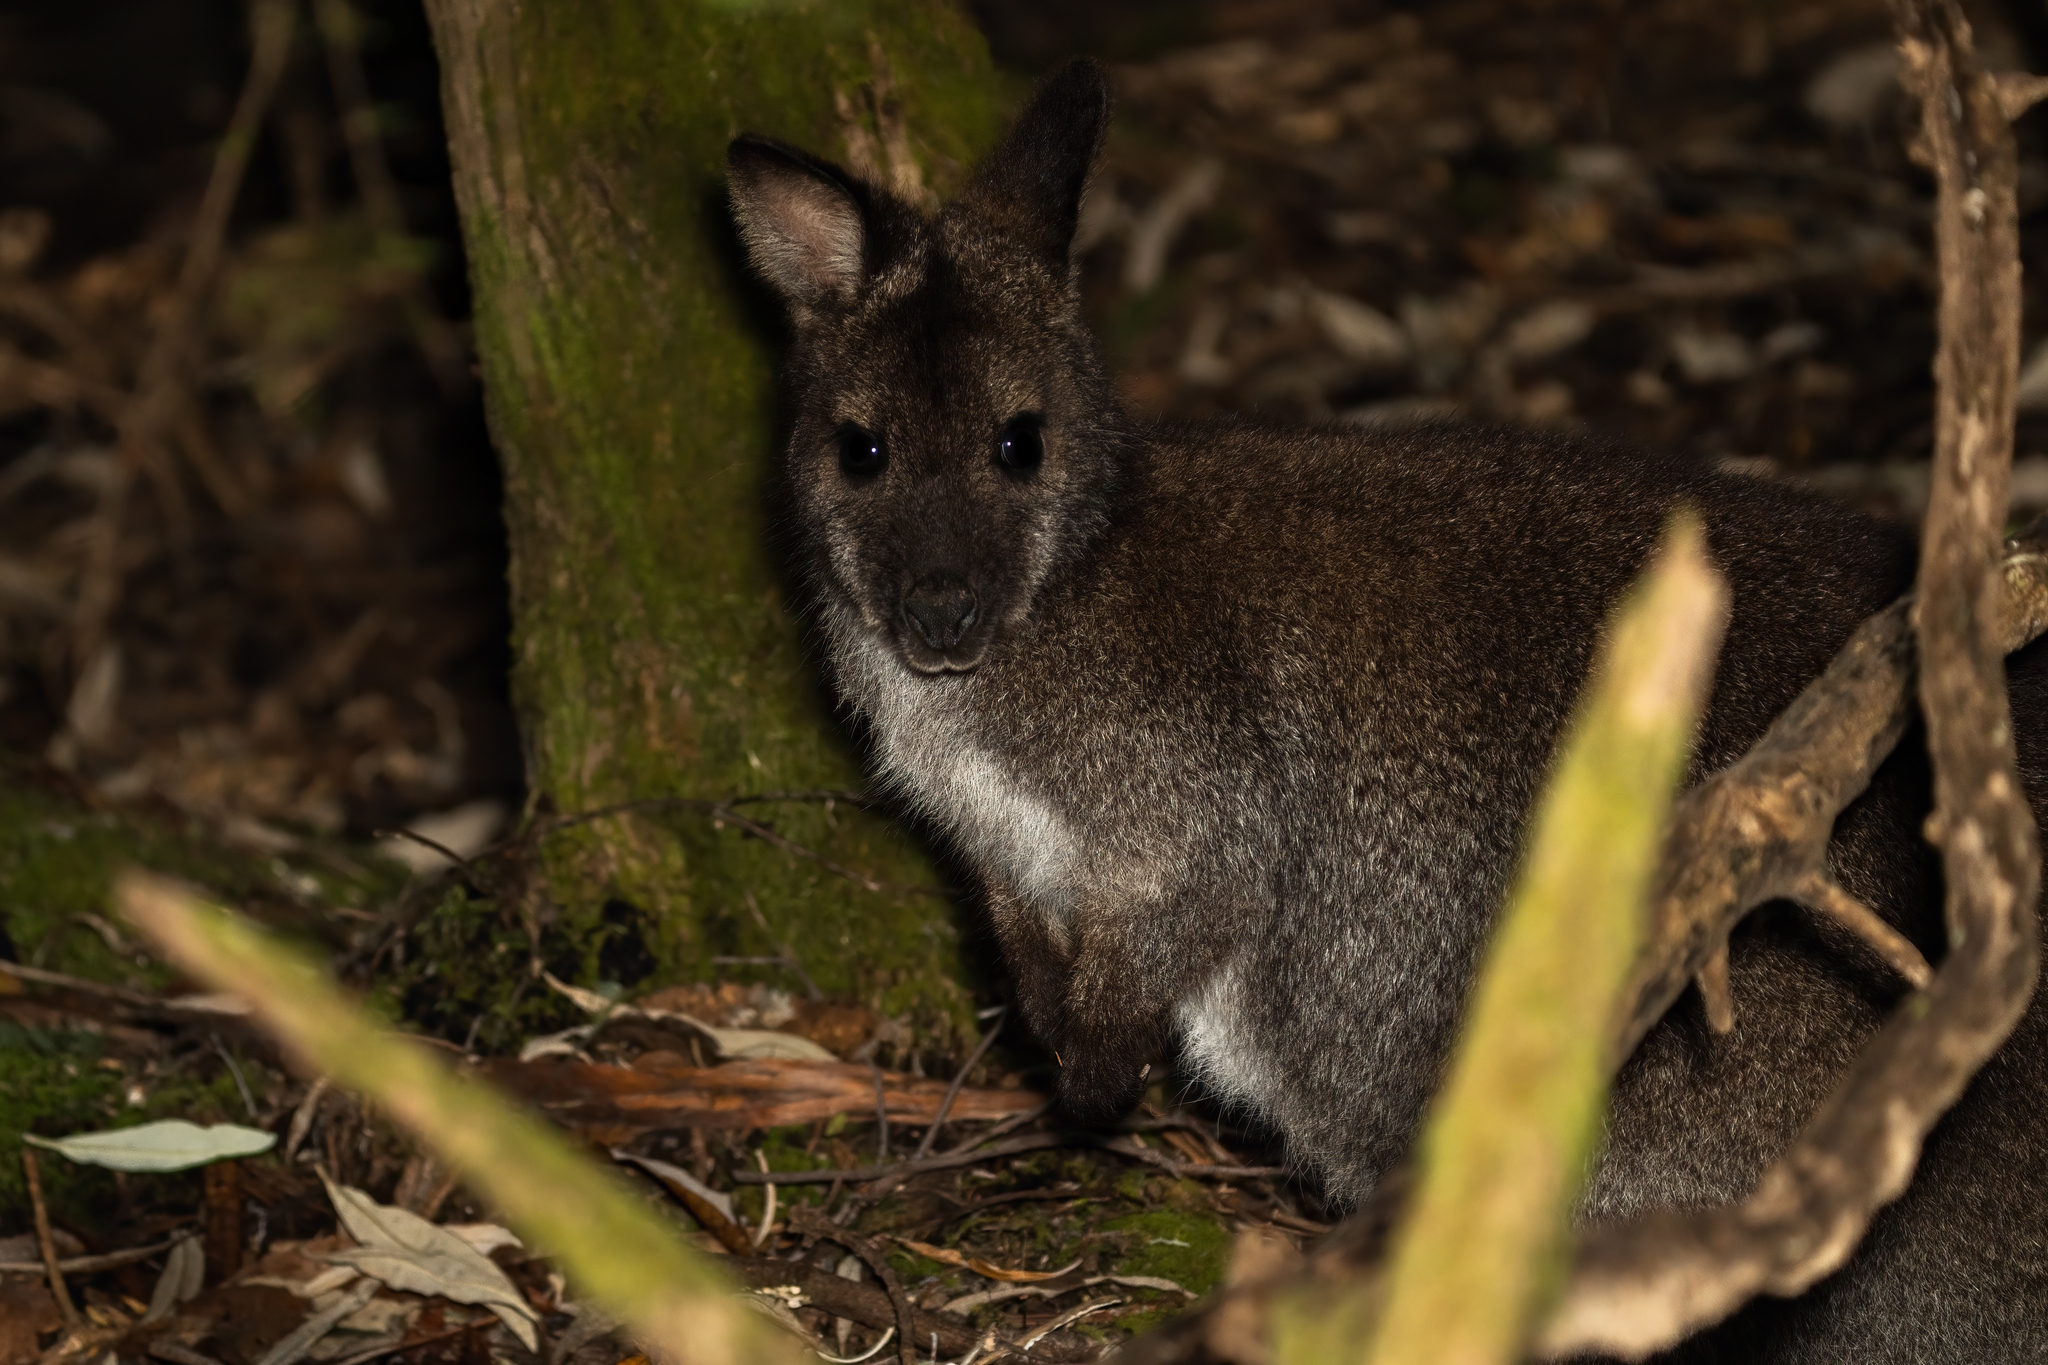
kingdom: Animalia
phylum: Chordata
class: Mammalia
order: Diprotodontia
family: Macropodidae
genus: Notamacropus
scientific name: Notamacropus rufogriseus
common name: Red-necked wallaby
